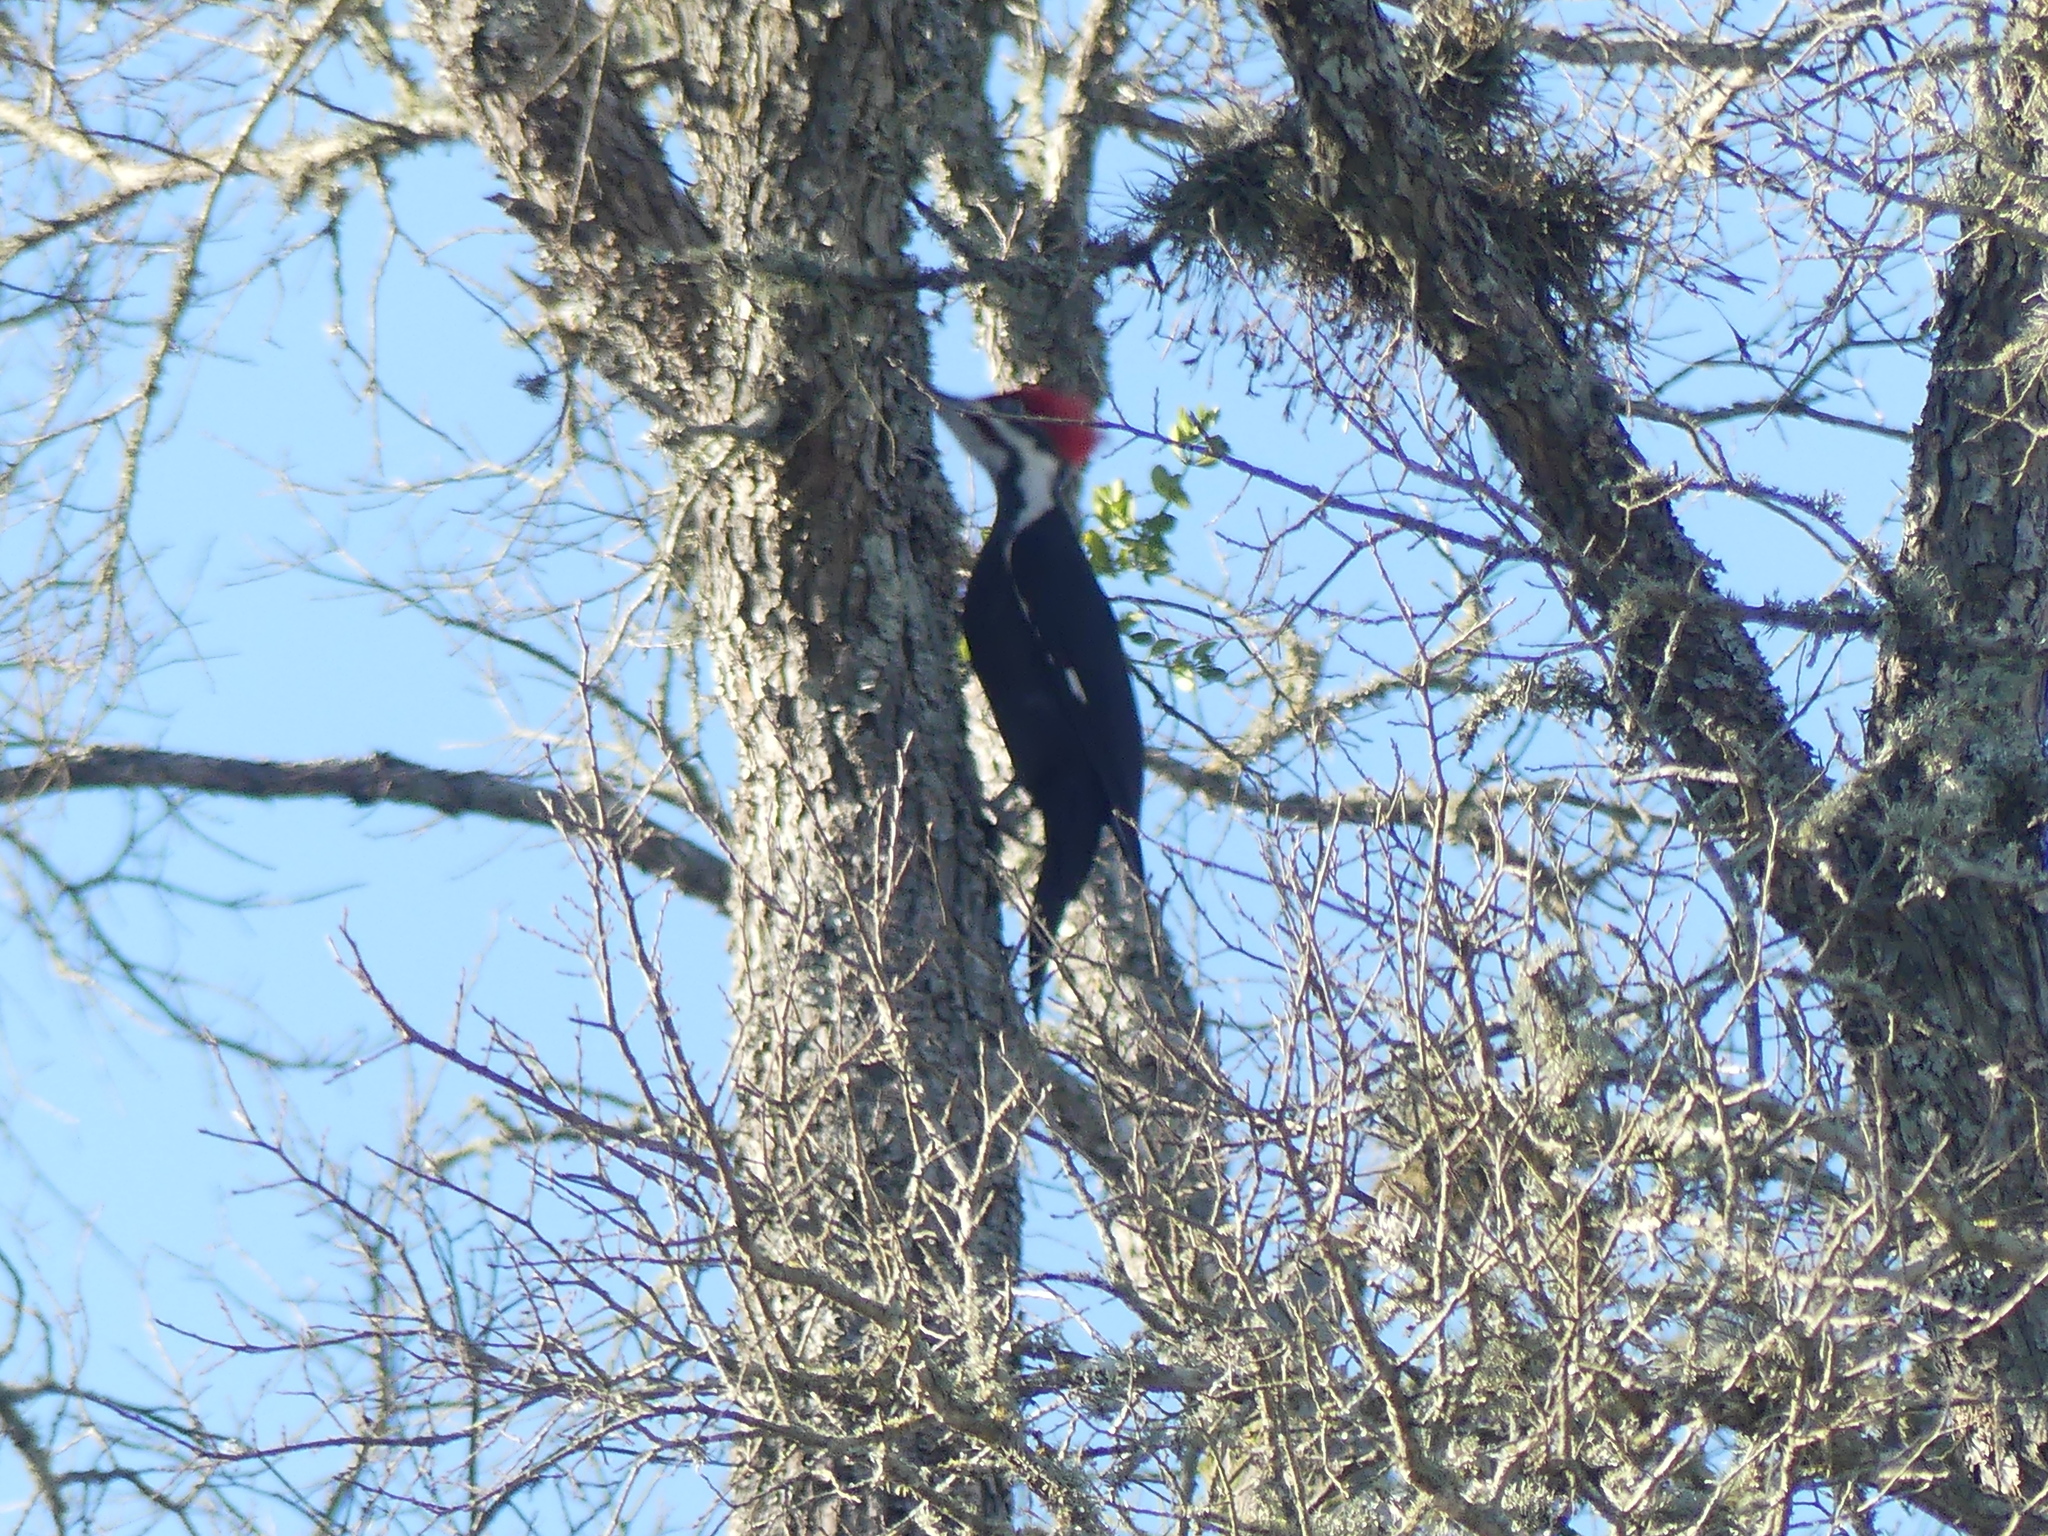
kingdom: Animalia
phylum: Chordata
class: Aves
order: Piciformes
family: Picidae
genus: Dryocopus
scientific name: Dryocopus pileatus
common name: Pileated woodpecker
